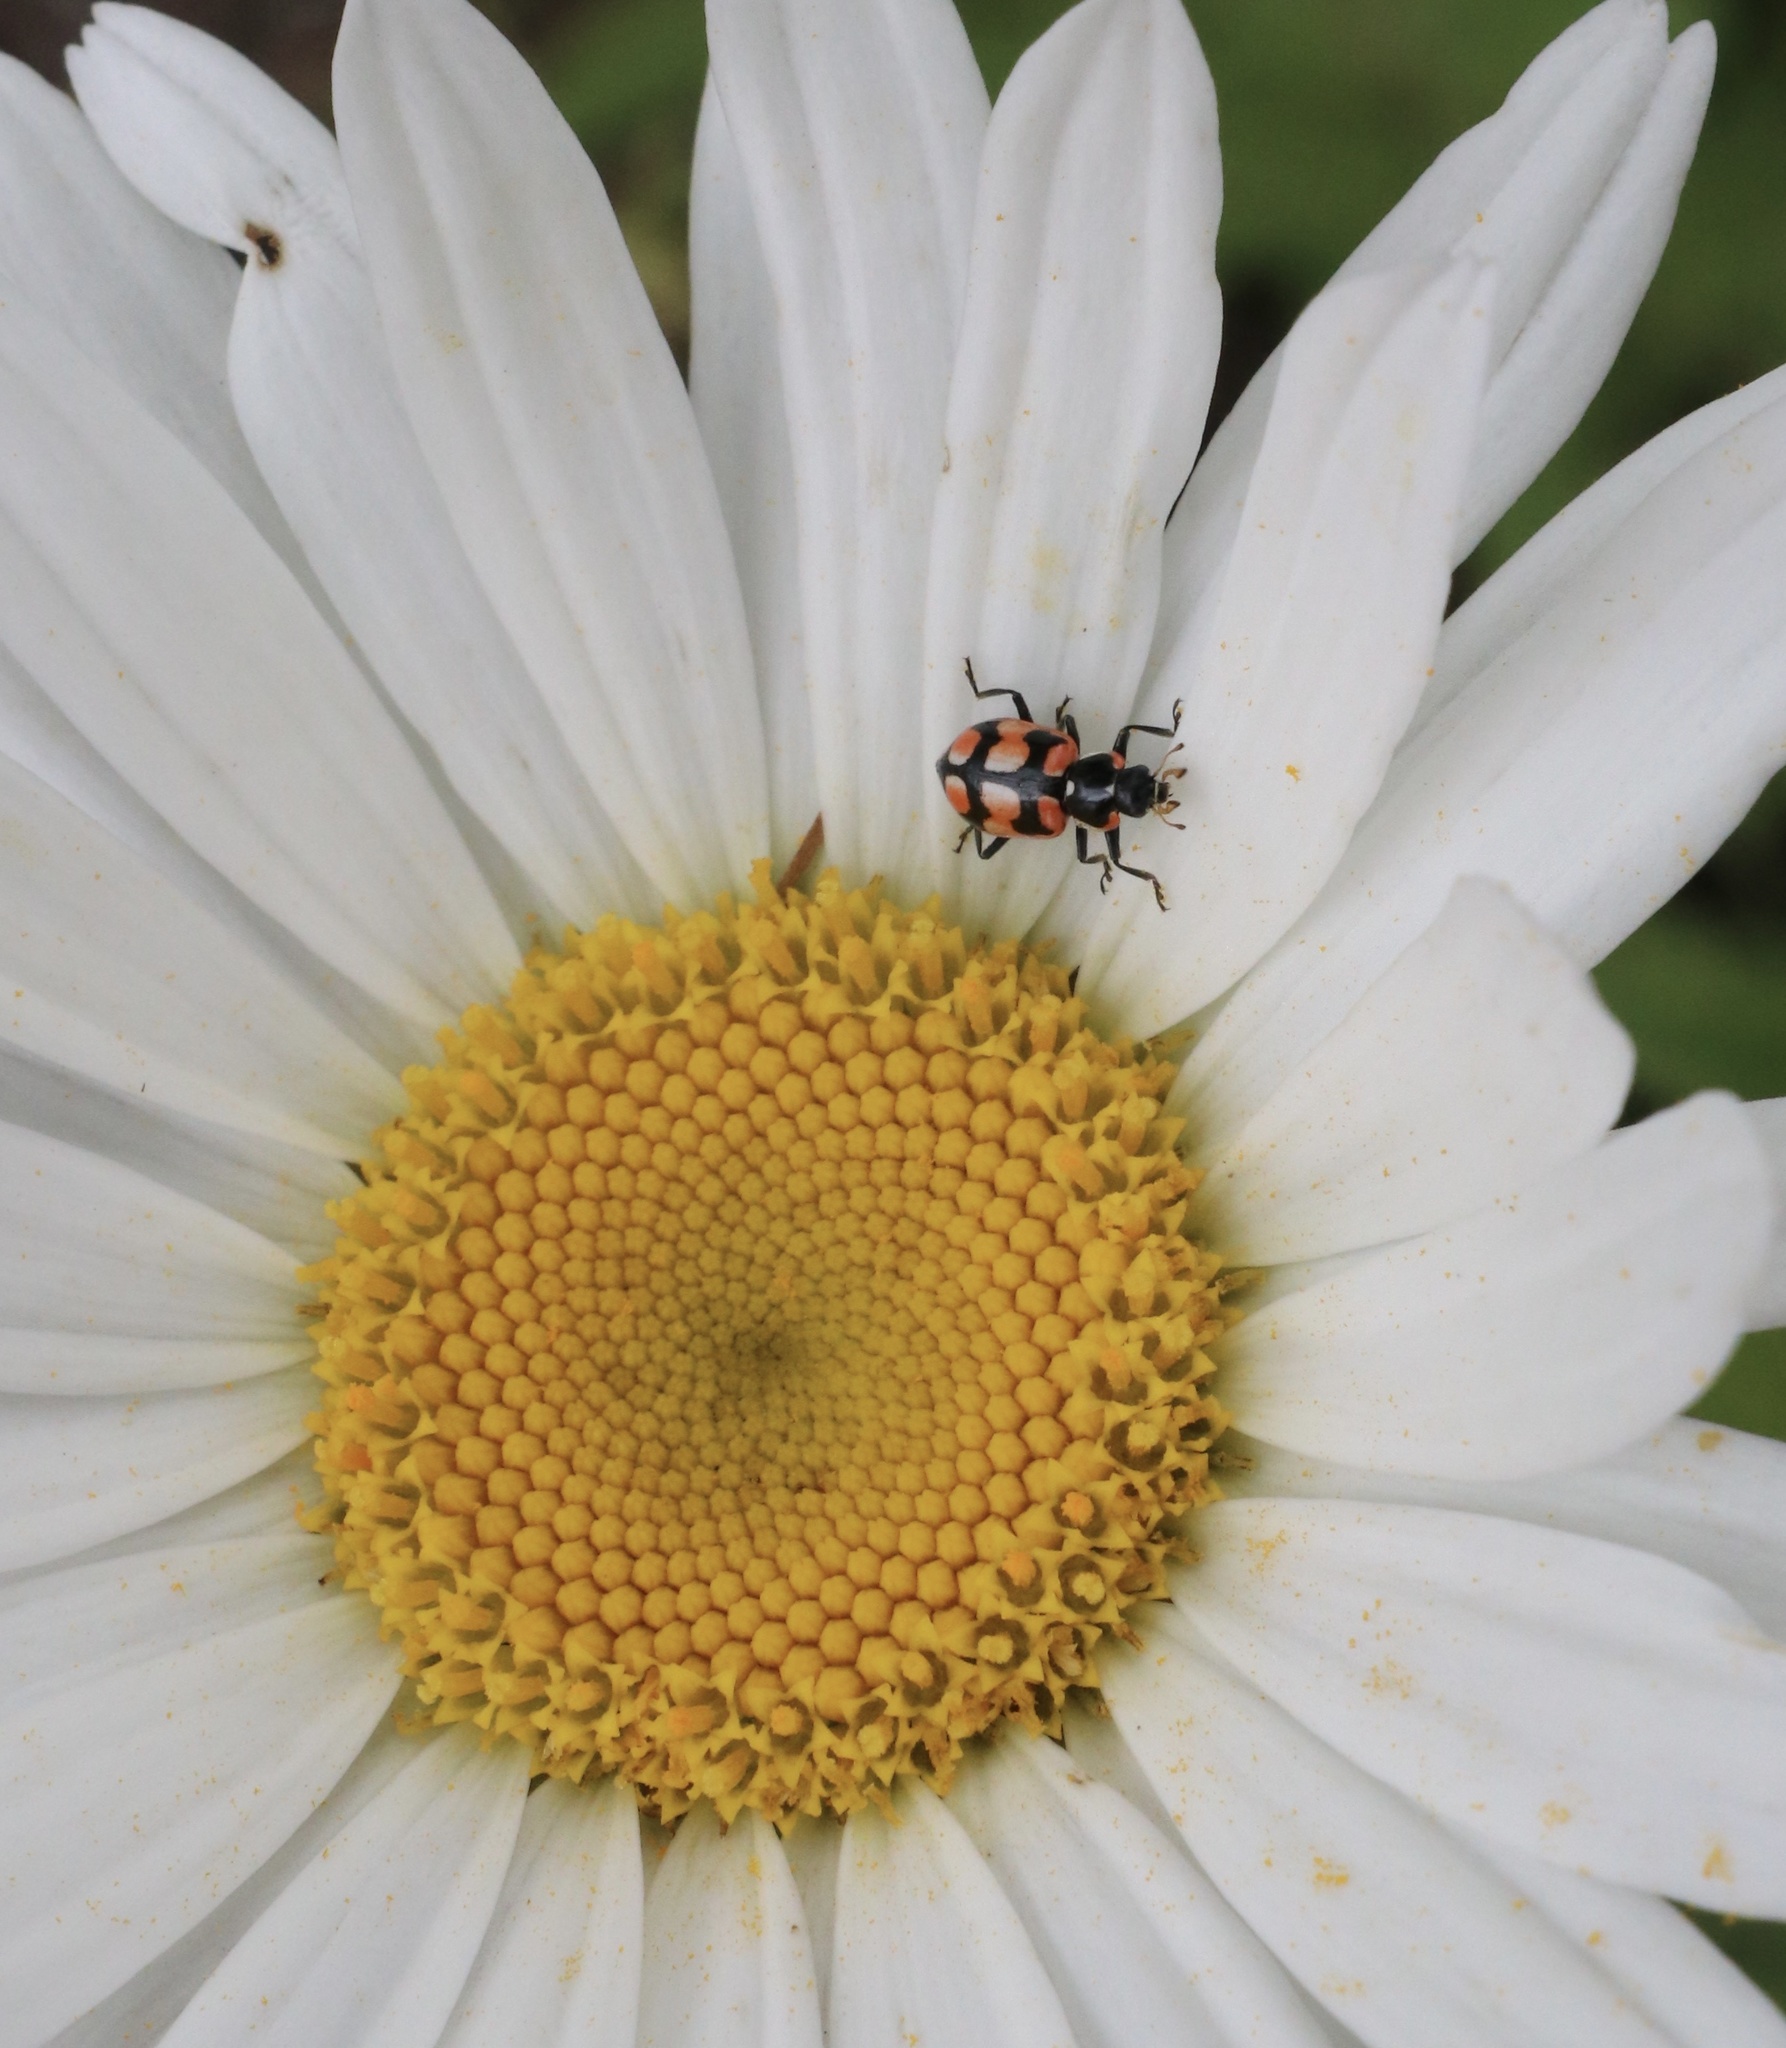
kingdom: Animalia
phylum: Arthropoda
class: Insecta
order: Coleoptera
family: Coccinellidae
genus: Eriopis
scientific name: Eriopis chilensis
